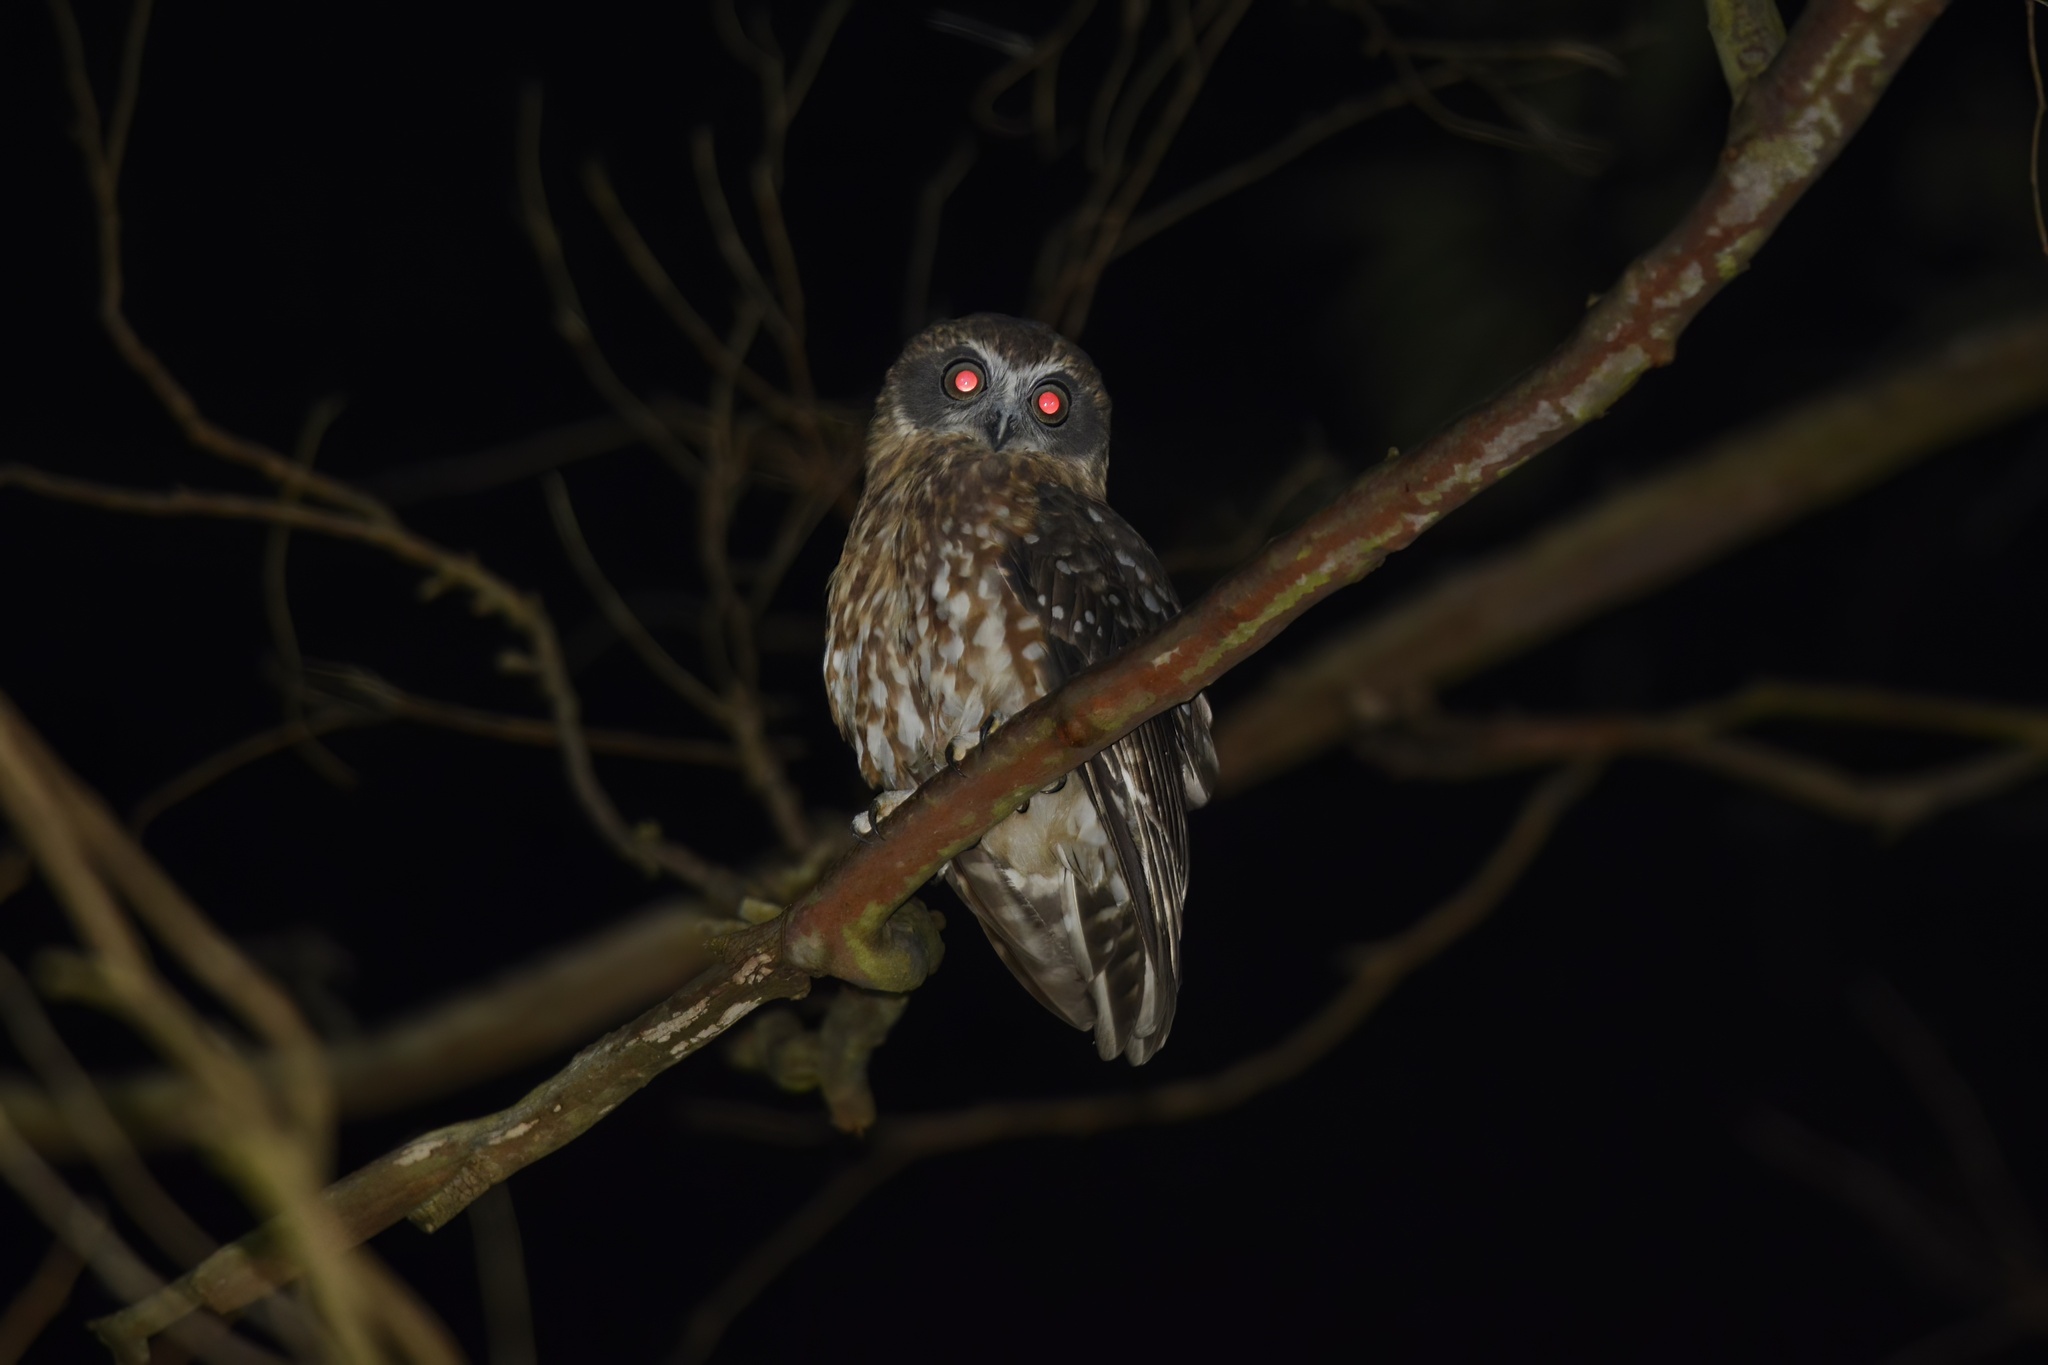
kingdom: Animalia
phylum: Chordata
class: Aves
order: Strigiformes
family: Strigidae
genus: Ninox
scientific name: Ninox boobook
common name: Southern boobook
